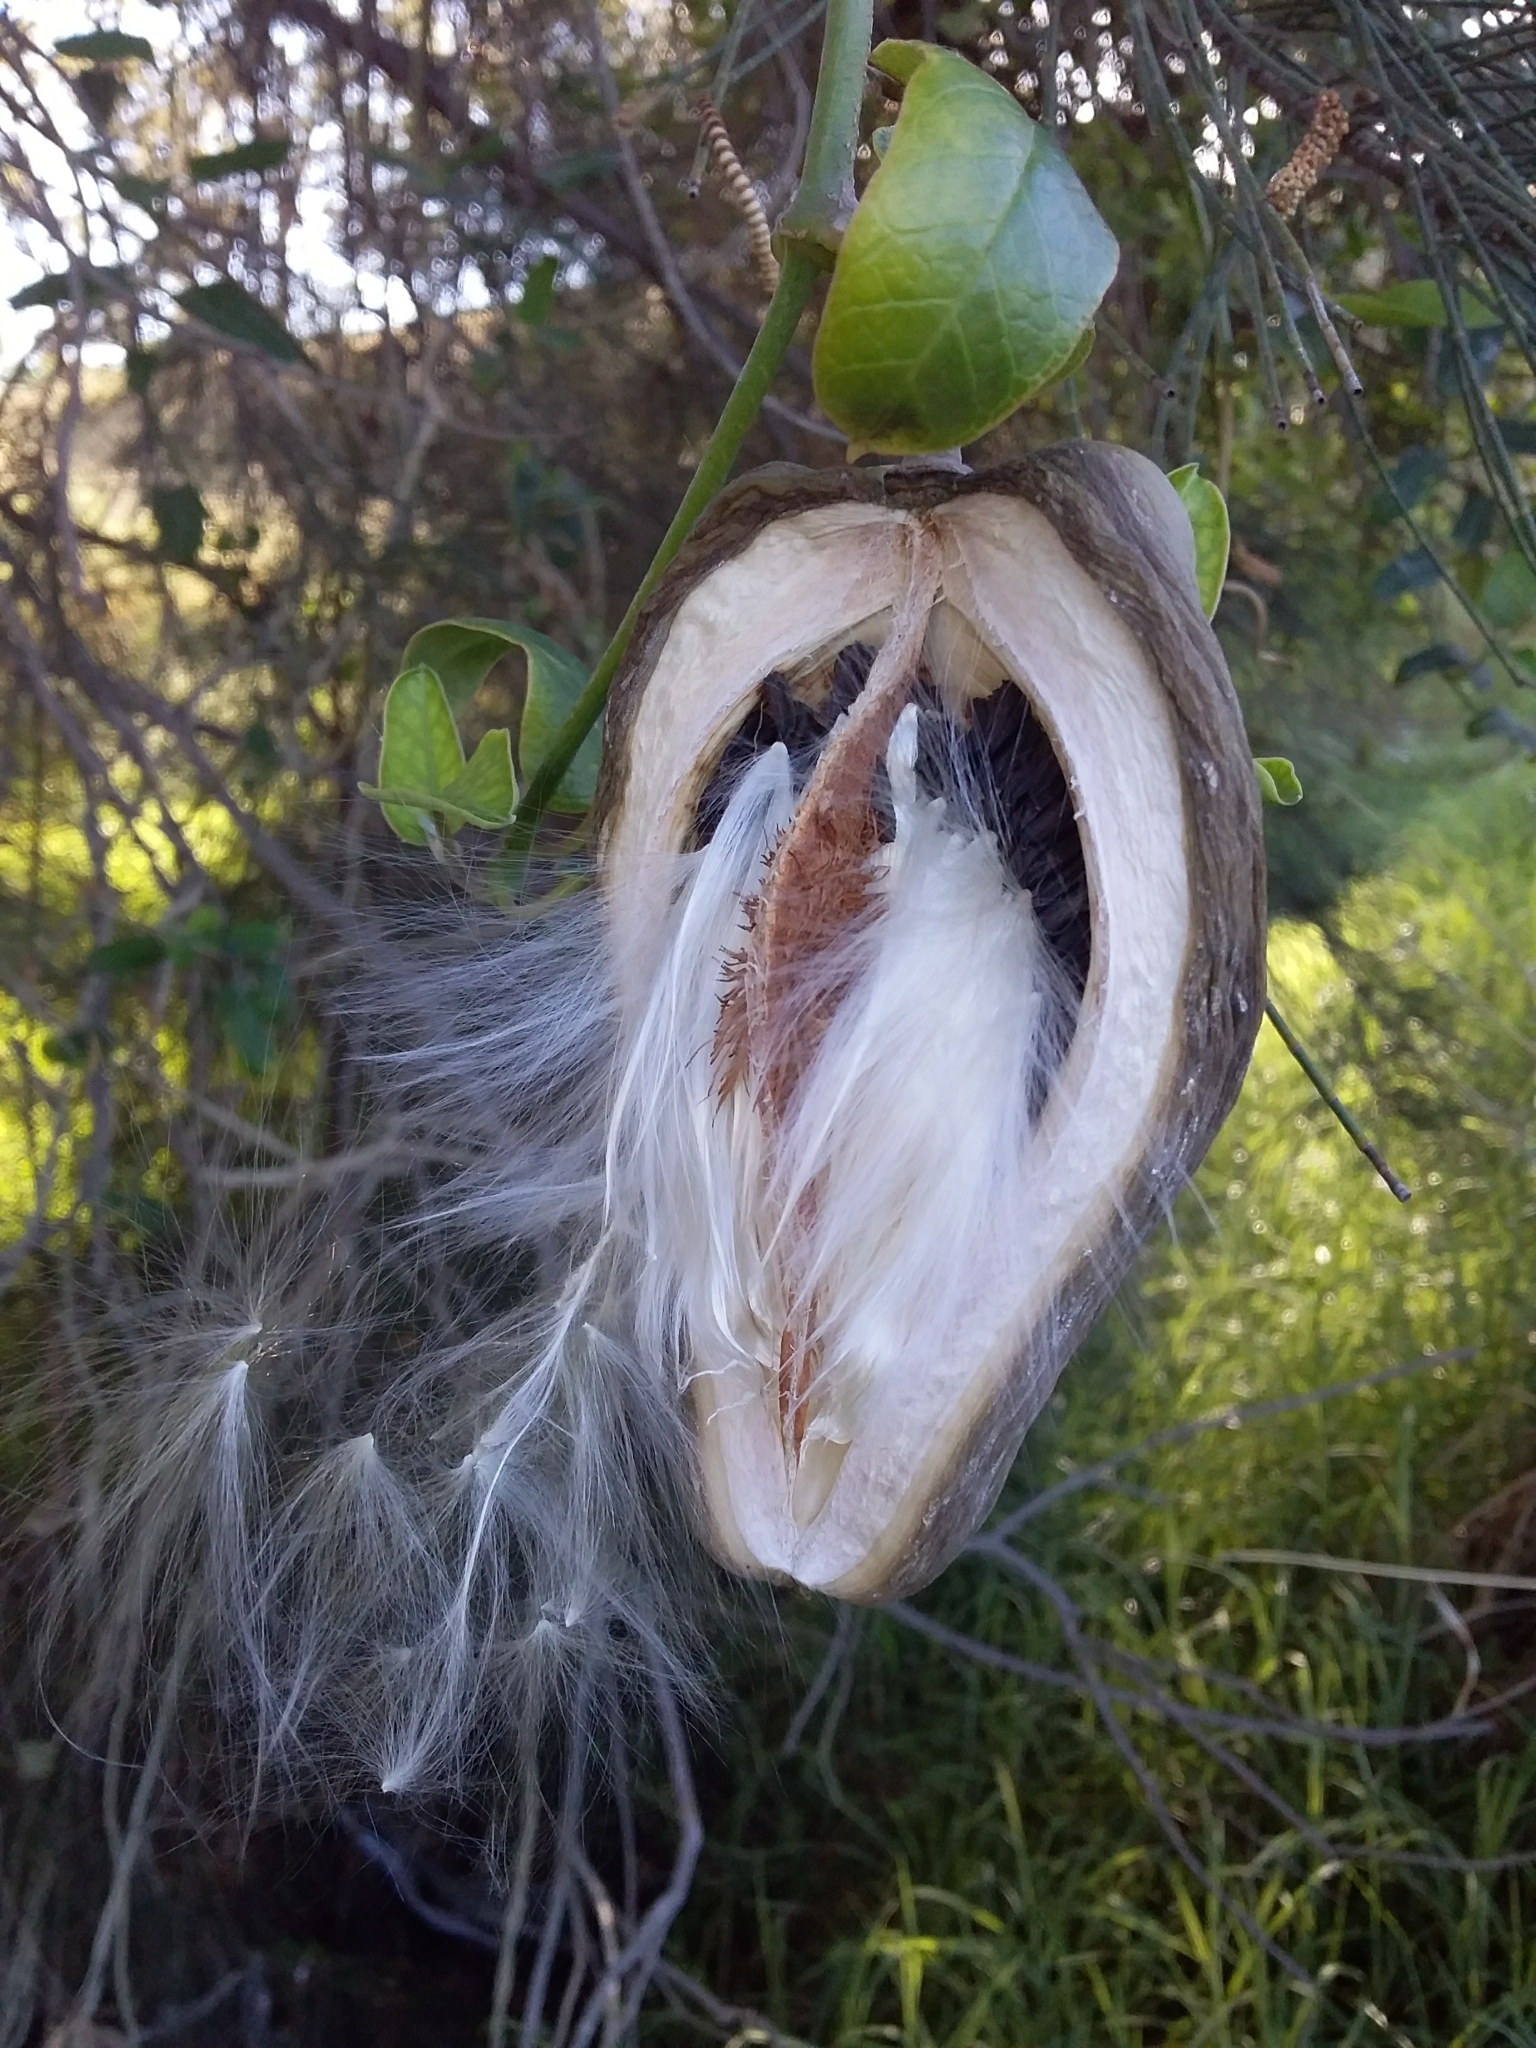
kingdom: Plantae
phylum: Tracheophyta
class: Magnoliopsida
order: Gentianales
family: Apocynaceae
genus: Araujia
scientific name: Araujia sericifera
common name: White bladderflower
